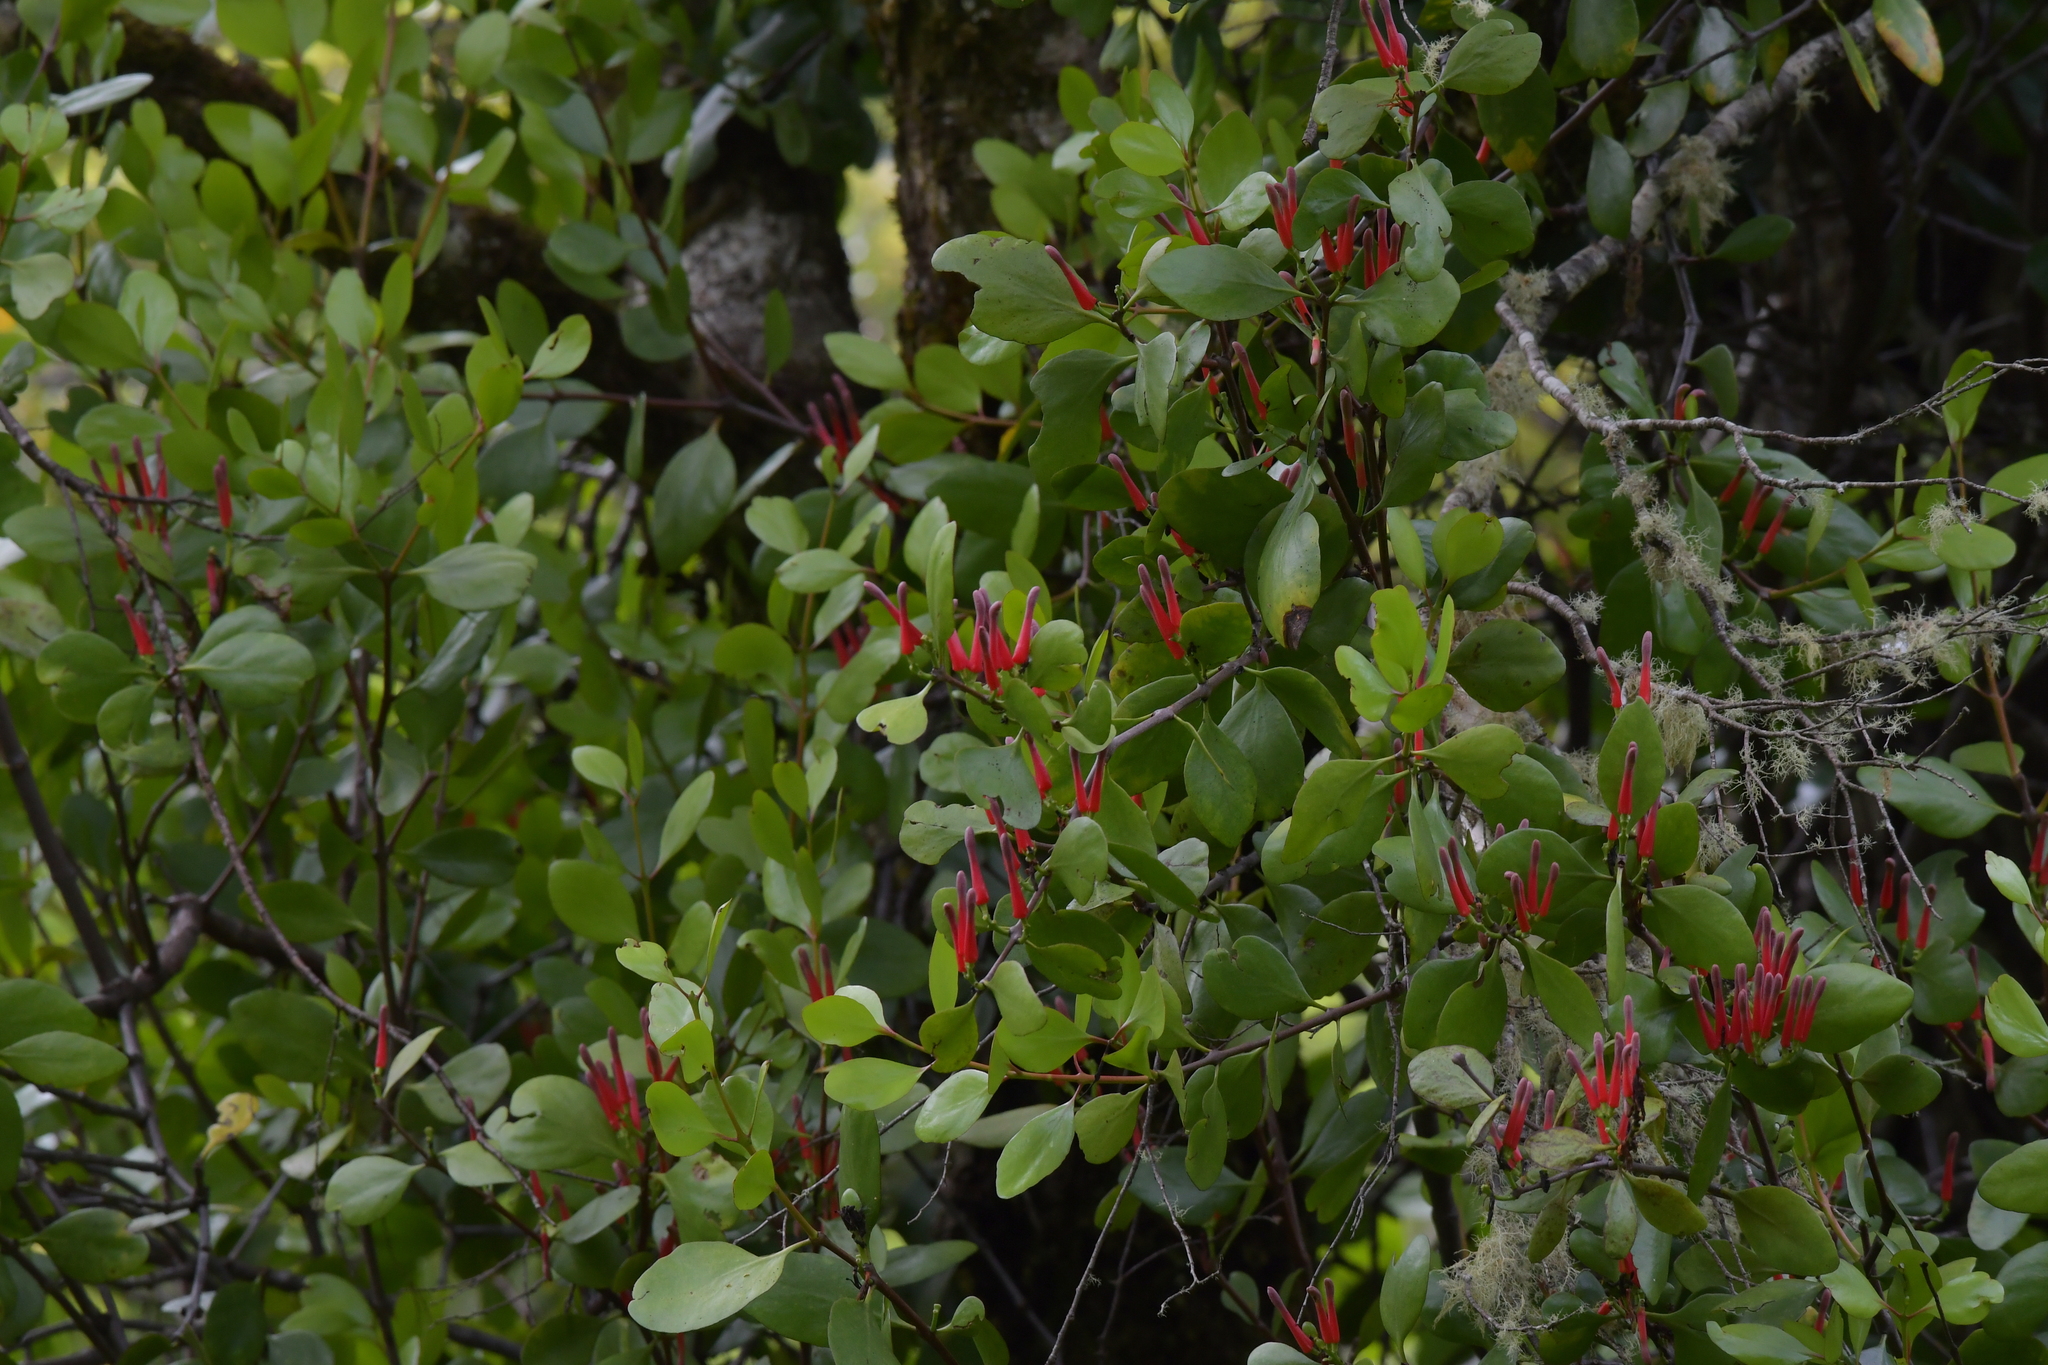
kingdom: Plantae
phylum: Tracheophyta
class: Magnoliopsida
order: Santalales
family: Loranthaceae
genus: Peraxilla
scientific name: Peraxilla colensoi
